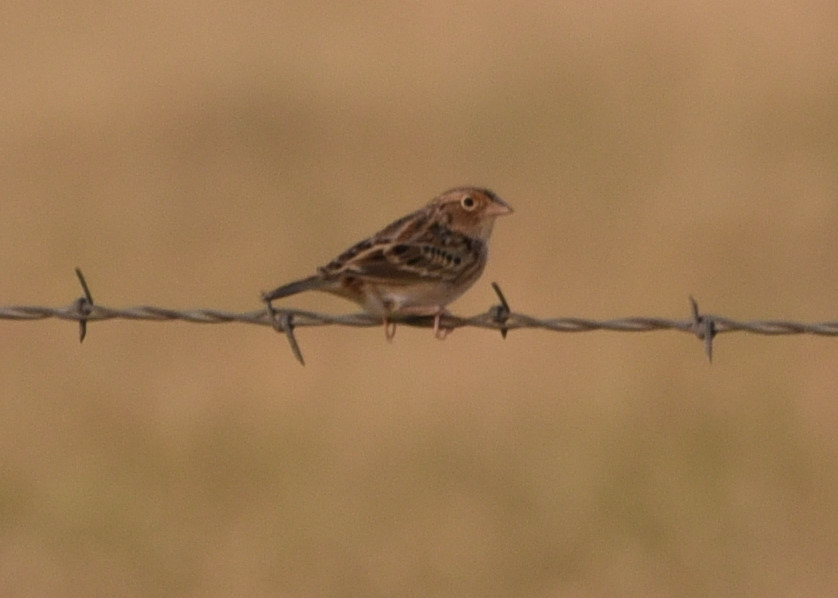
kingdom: Animalia
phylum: Chordata
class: Aves
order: Passeriformes
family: Passerellidae
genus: Ammodramus
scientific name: Ammodramus savannarum
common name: Grasshopper sparrow
